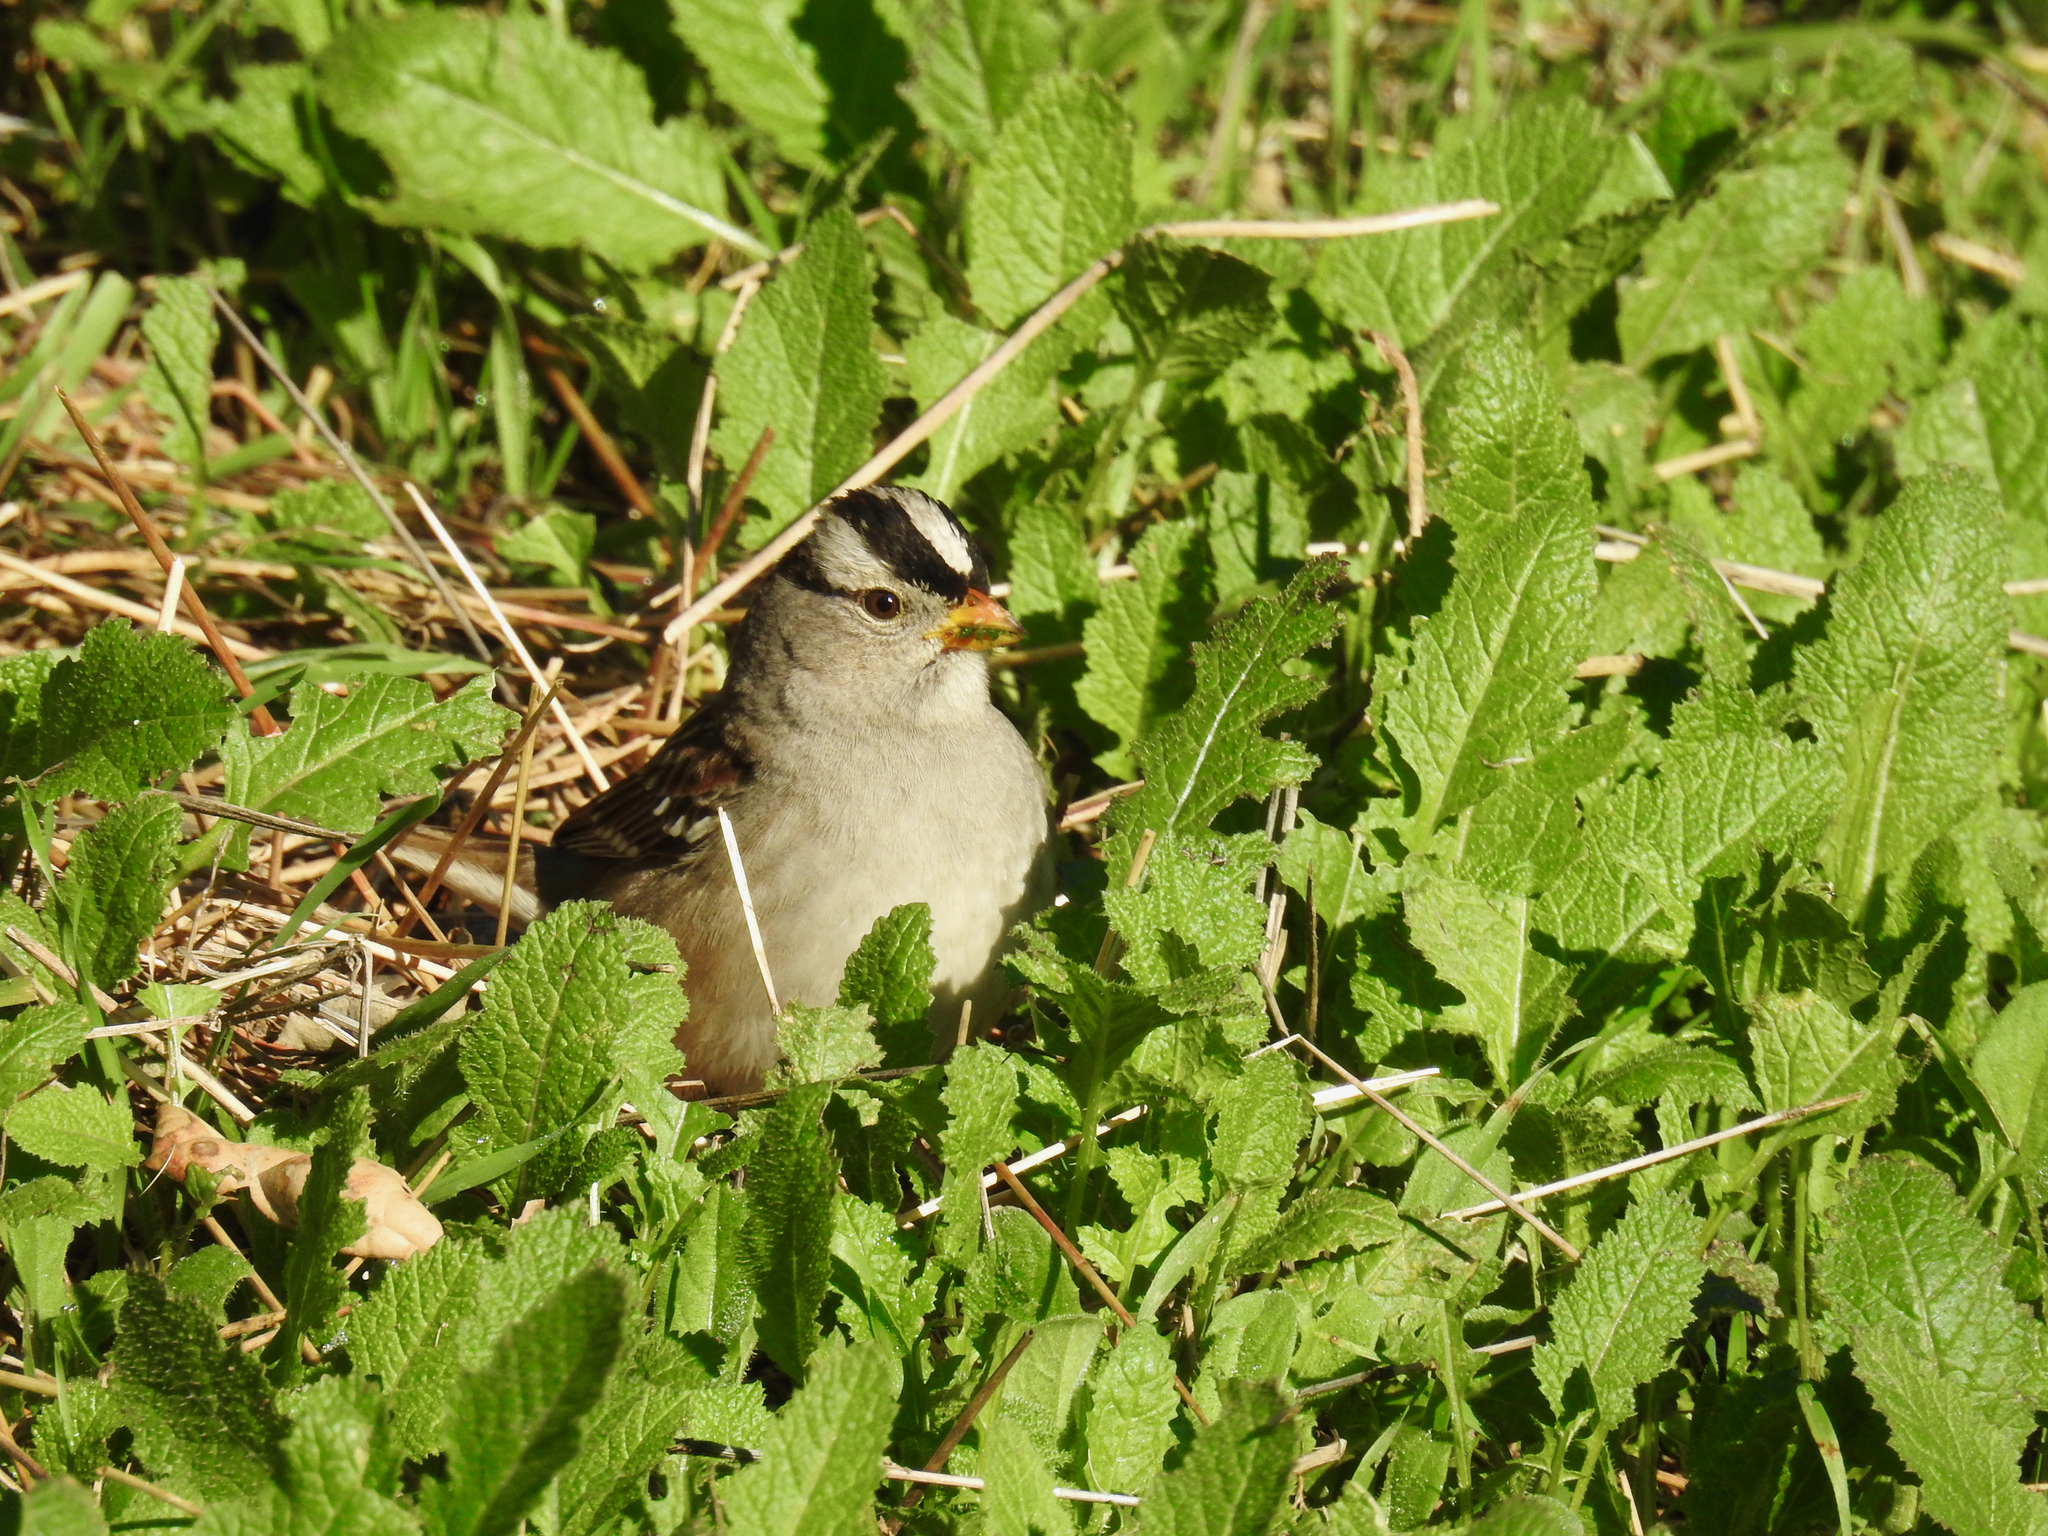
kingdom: Animalia
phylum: Chordata
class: Aves
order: Passeriformes
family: Passerellidae
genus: Zonotrichia
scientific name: Zonotrichia leucophrys
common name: White-crowned sparrow
